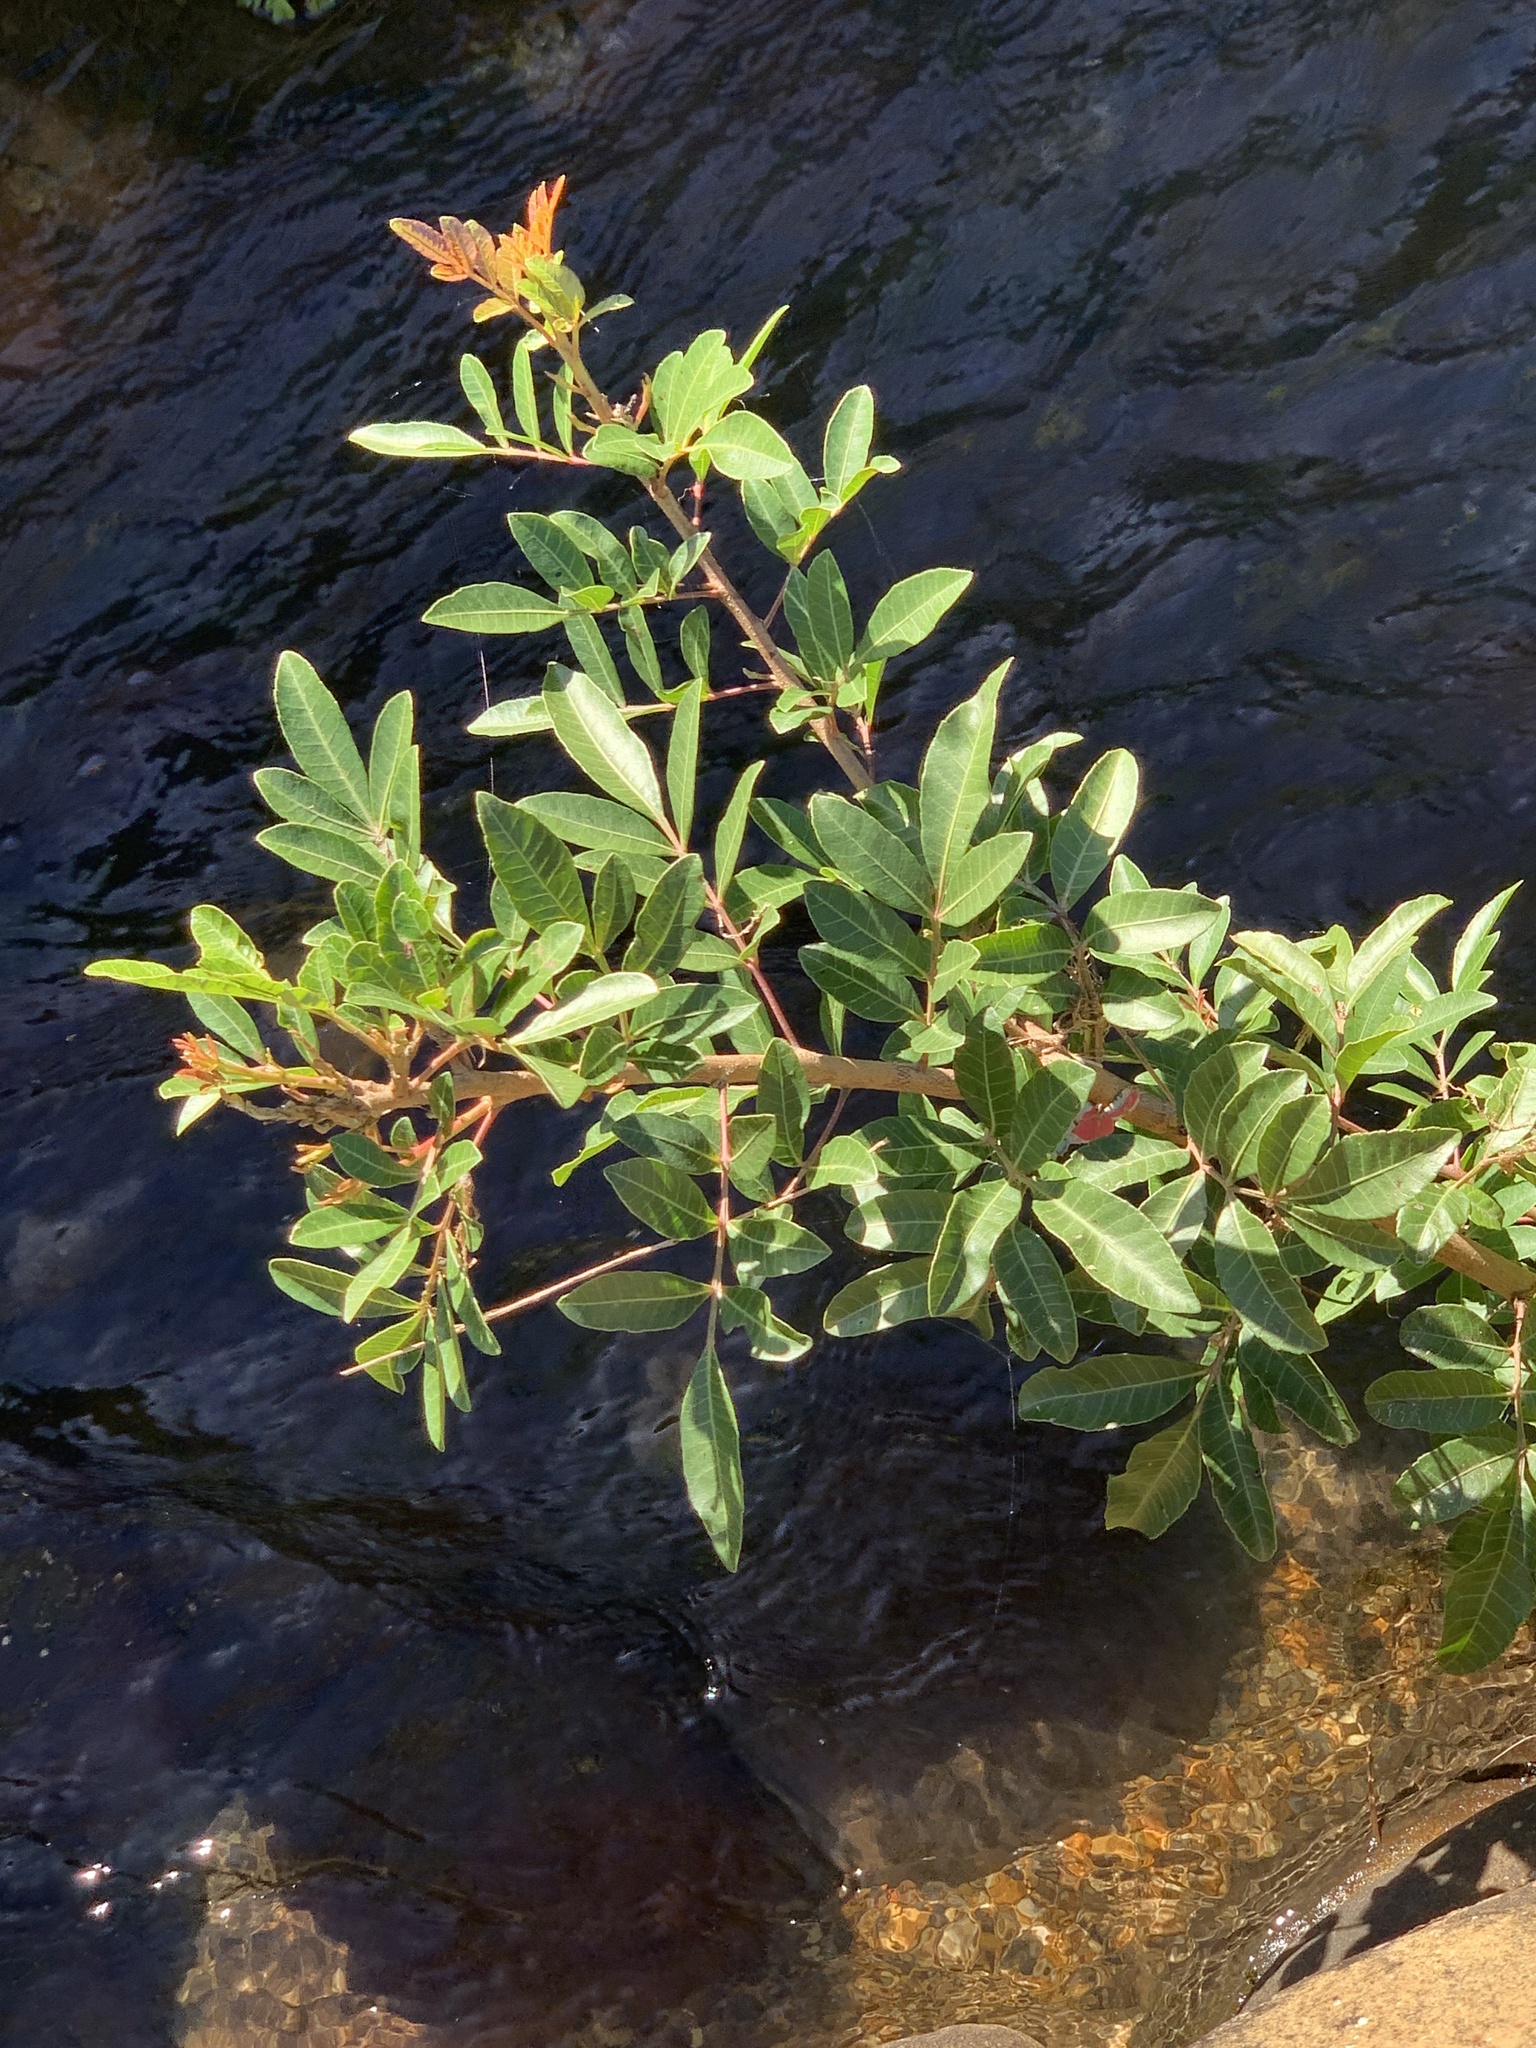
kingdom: Plantae
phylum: Tracheophyta
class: Magnoliopsida
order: Sapindales
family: Anacardiaceae
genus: Schinus
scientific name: Schinus terebinthifolia
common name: Brazilian peppertree
